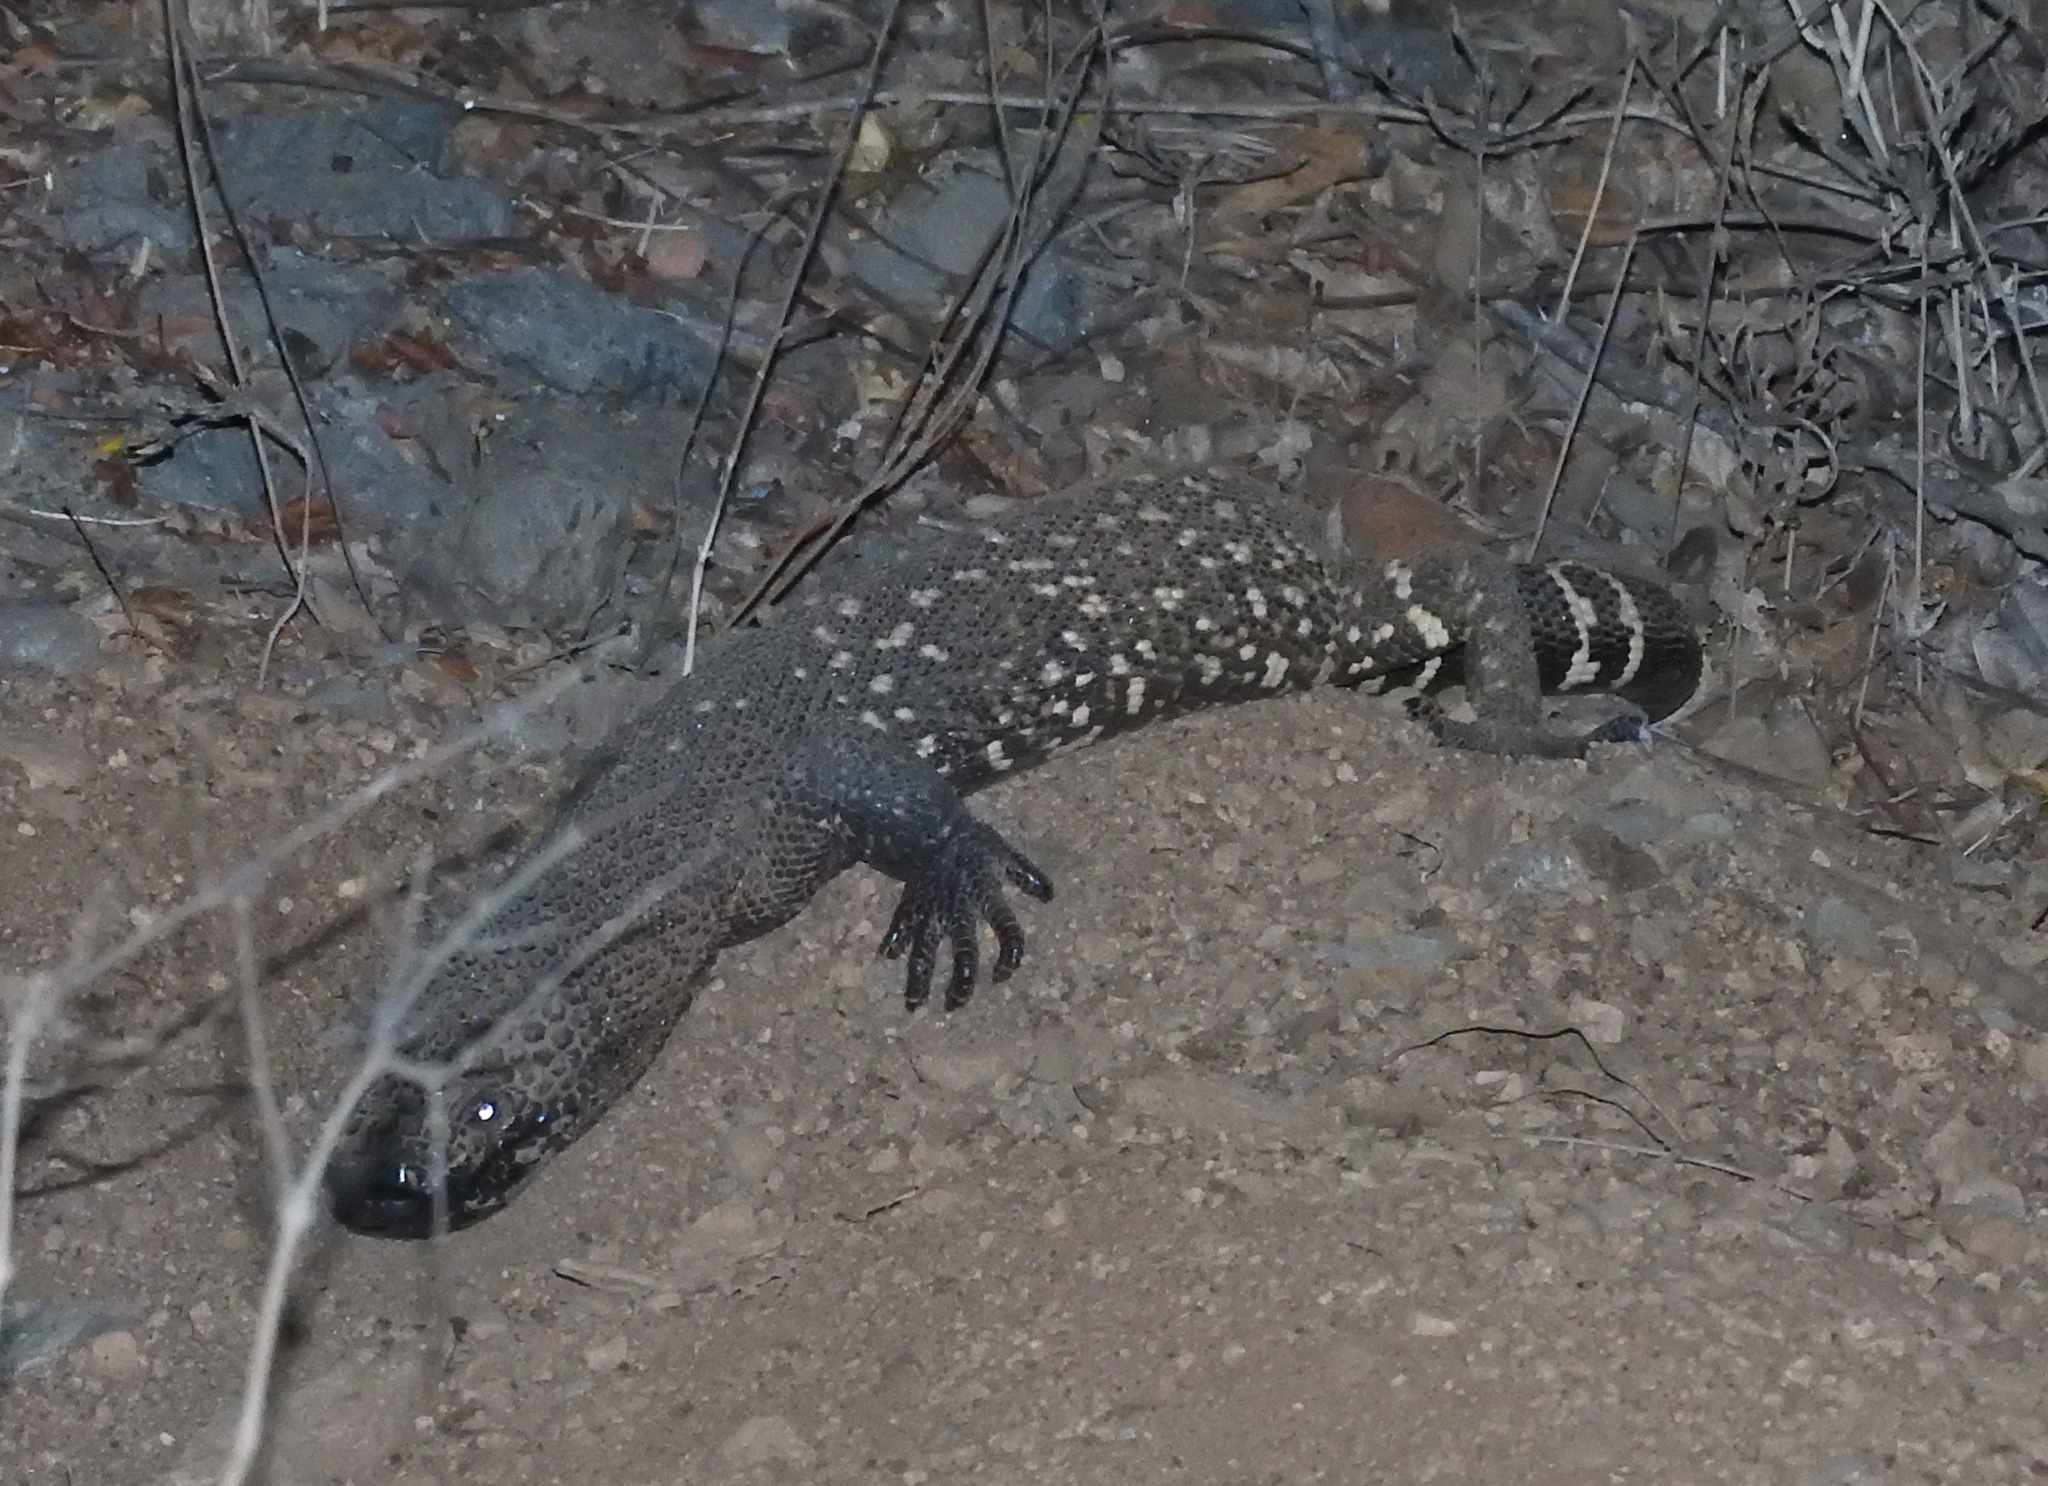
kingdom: Animalia
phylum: Chordata
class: Squamata
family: Helodermatidae
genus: Heloderma
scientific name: Heloderma horridum
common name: Mexican beaded lizard
